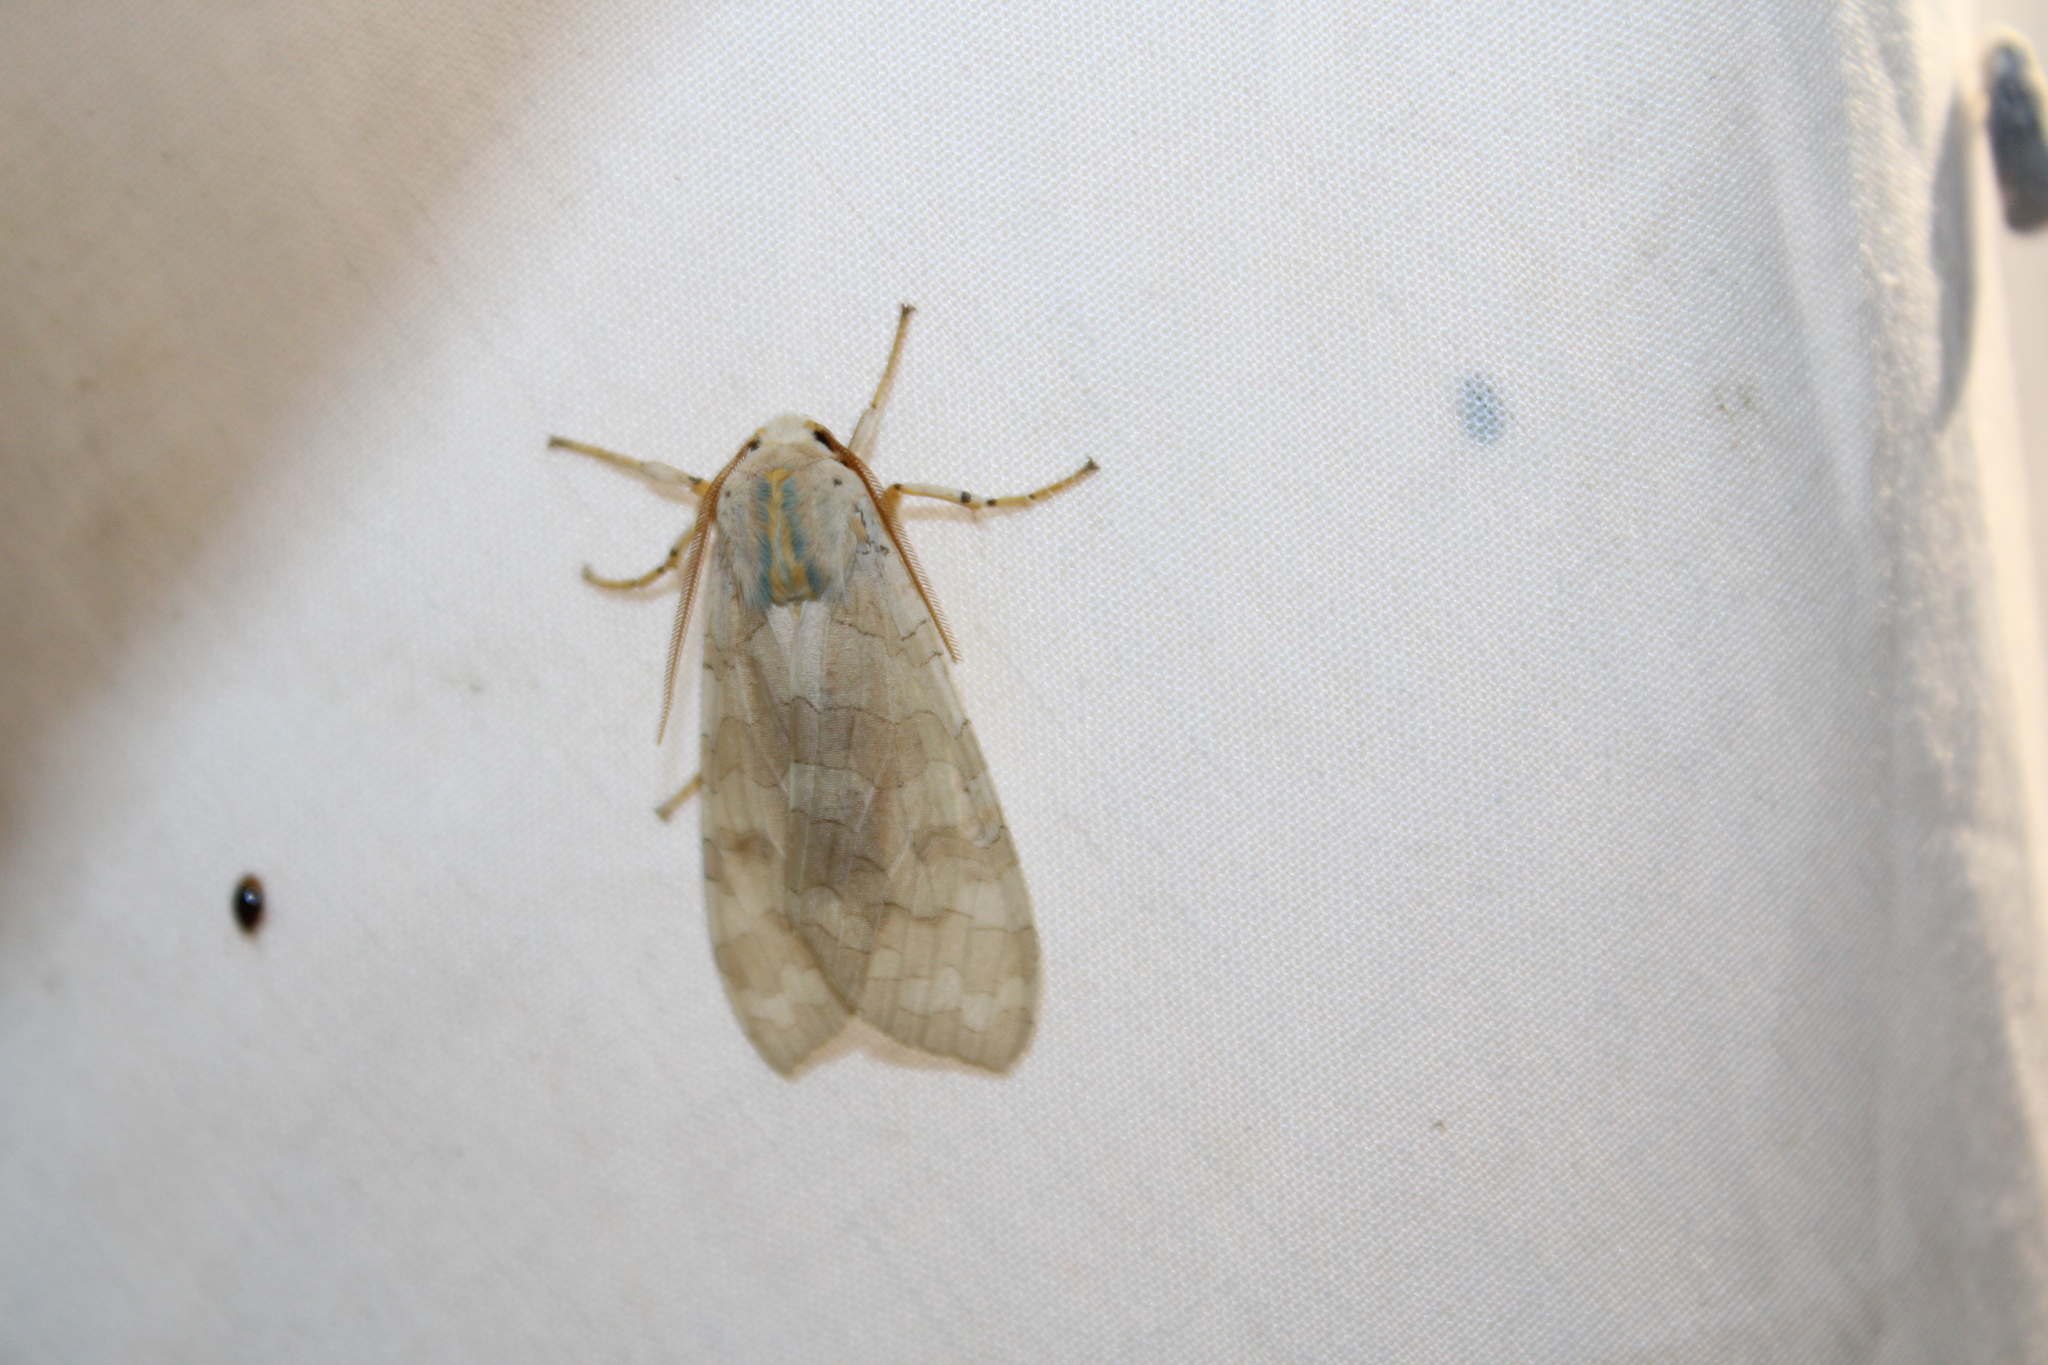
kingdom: Animalia
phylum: Arthropoda
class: Insecta
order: Lepidoptera
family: Erebidae
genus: Halysidota
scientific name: Halysidota
